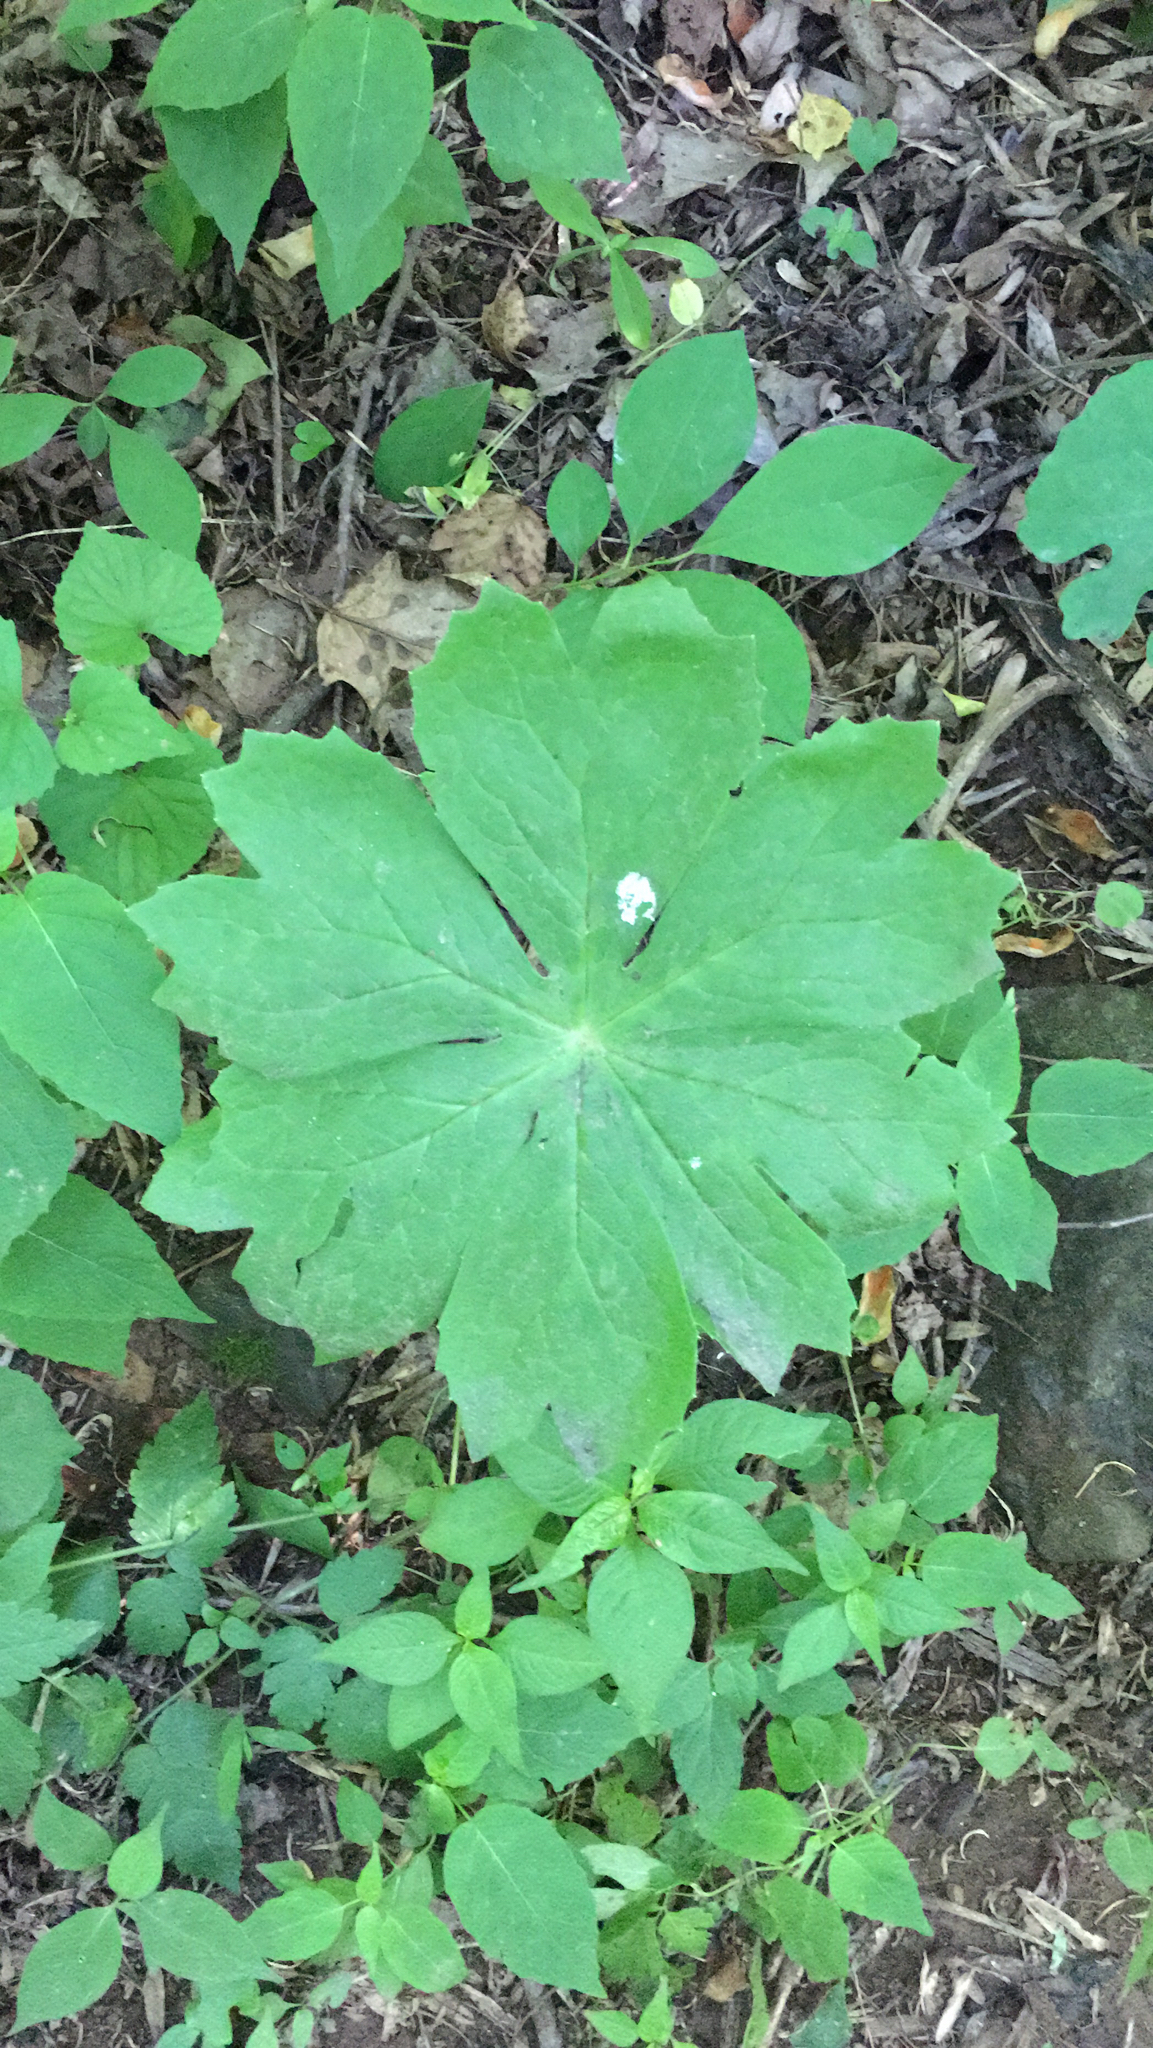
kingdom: Plantae
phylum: Tracheophyta
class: Magnoliopsida
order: Ranunculales
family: Berberidaceae
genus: Podophyllum
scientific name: Podophyllum peltatum
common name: Wild mandrake
